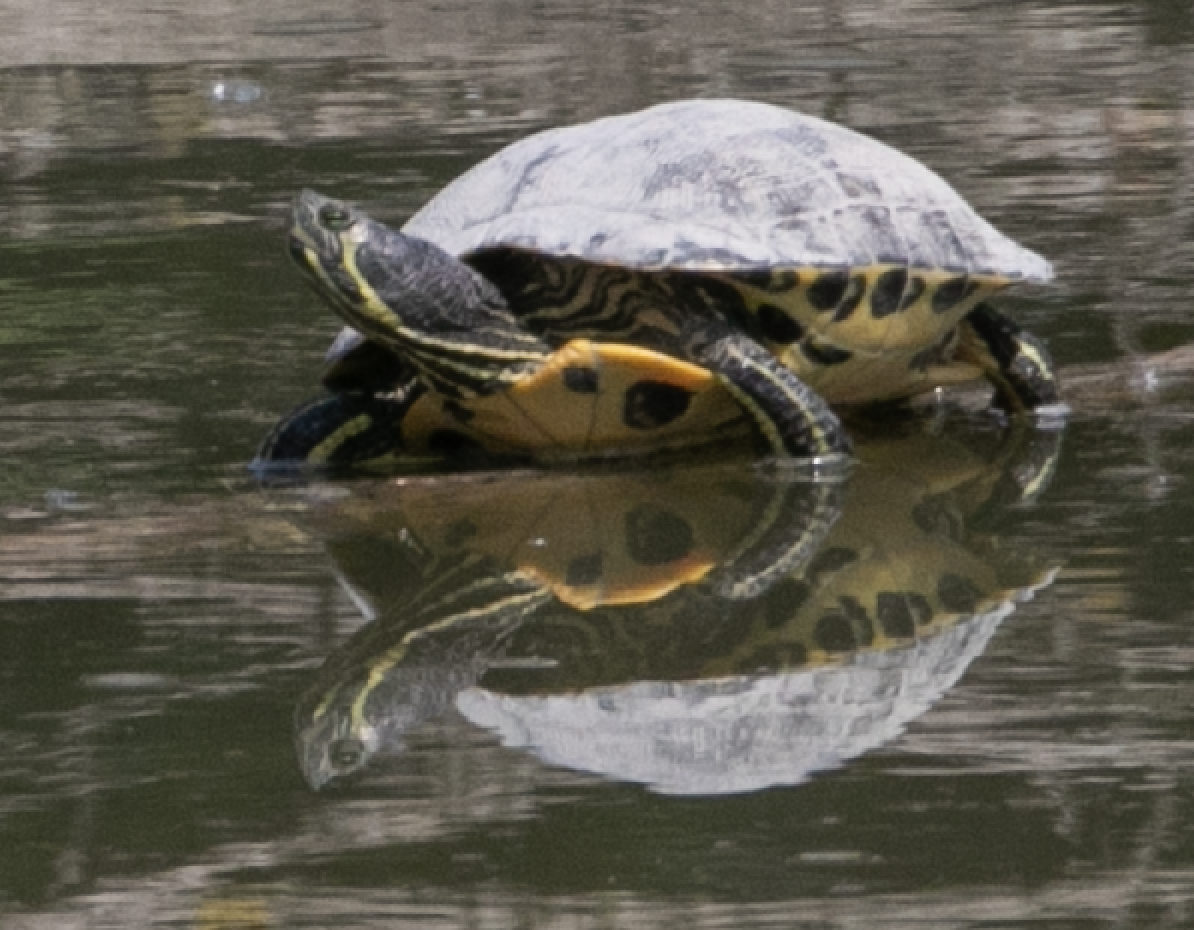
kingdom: Animalia
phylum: Chordata
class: Testudines
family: Emydidae
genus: Trachemys
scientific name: Trachemys scripta
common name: Slider
